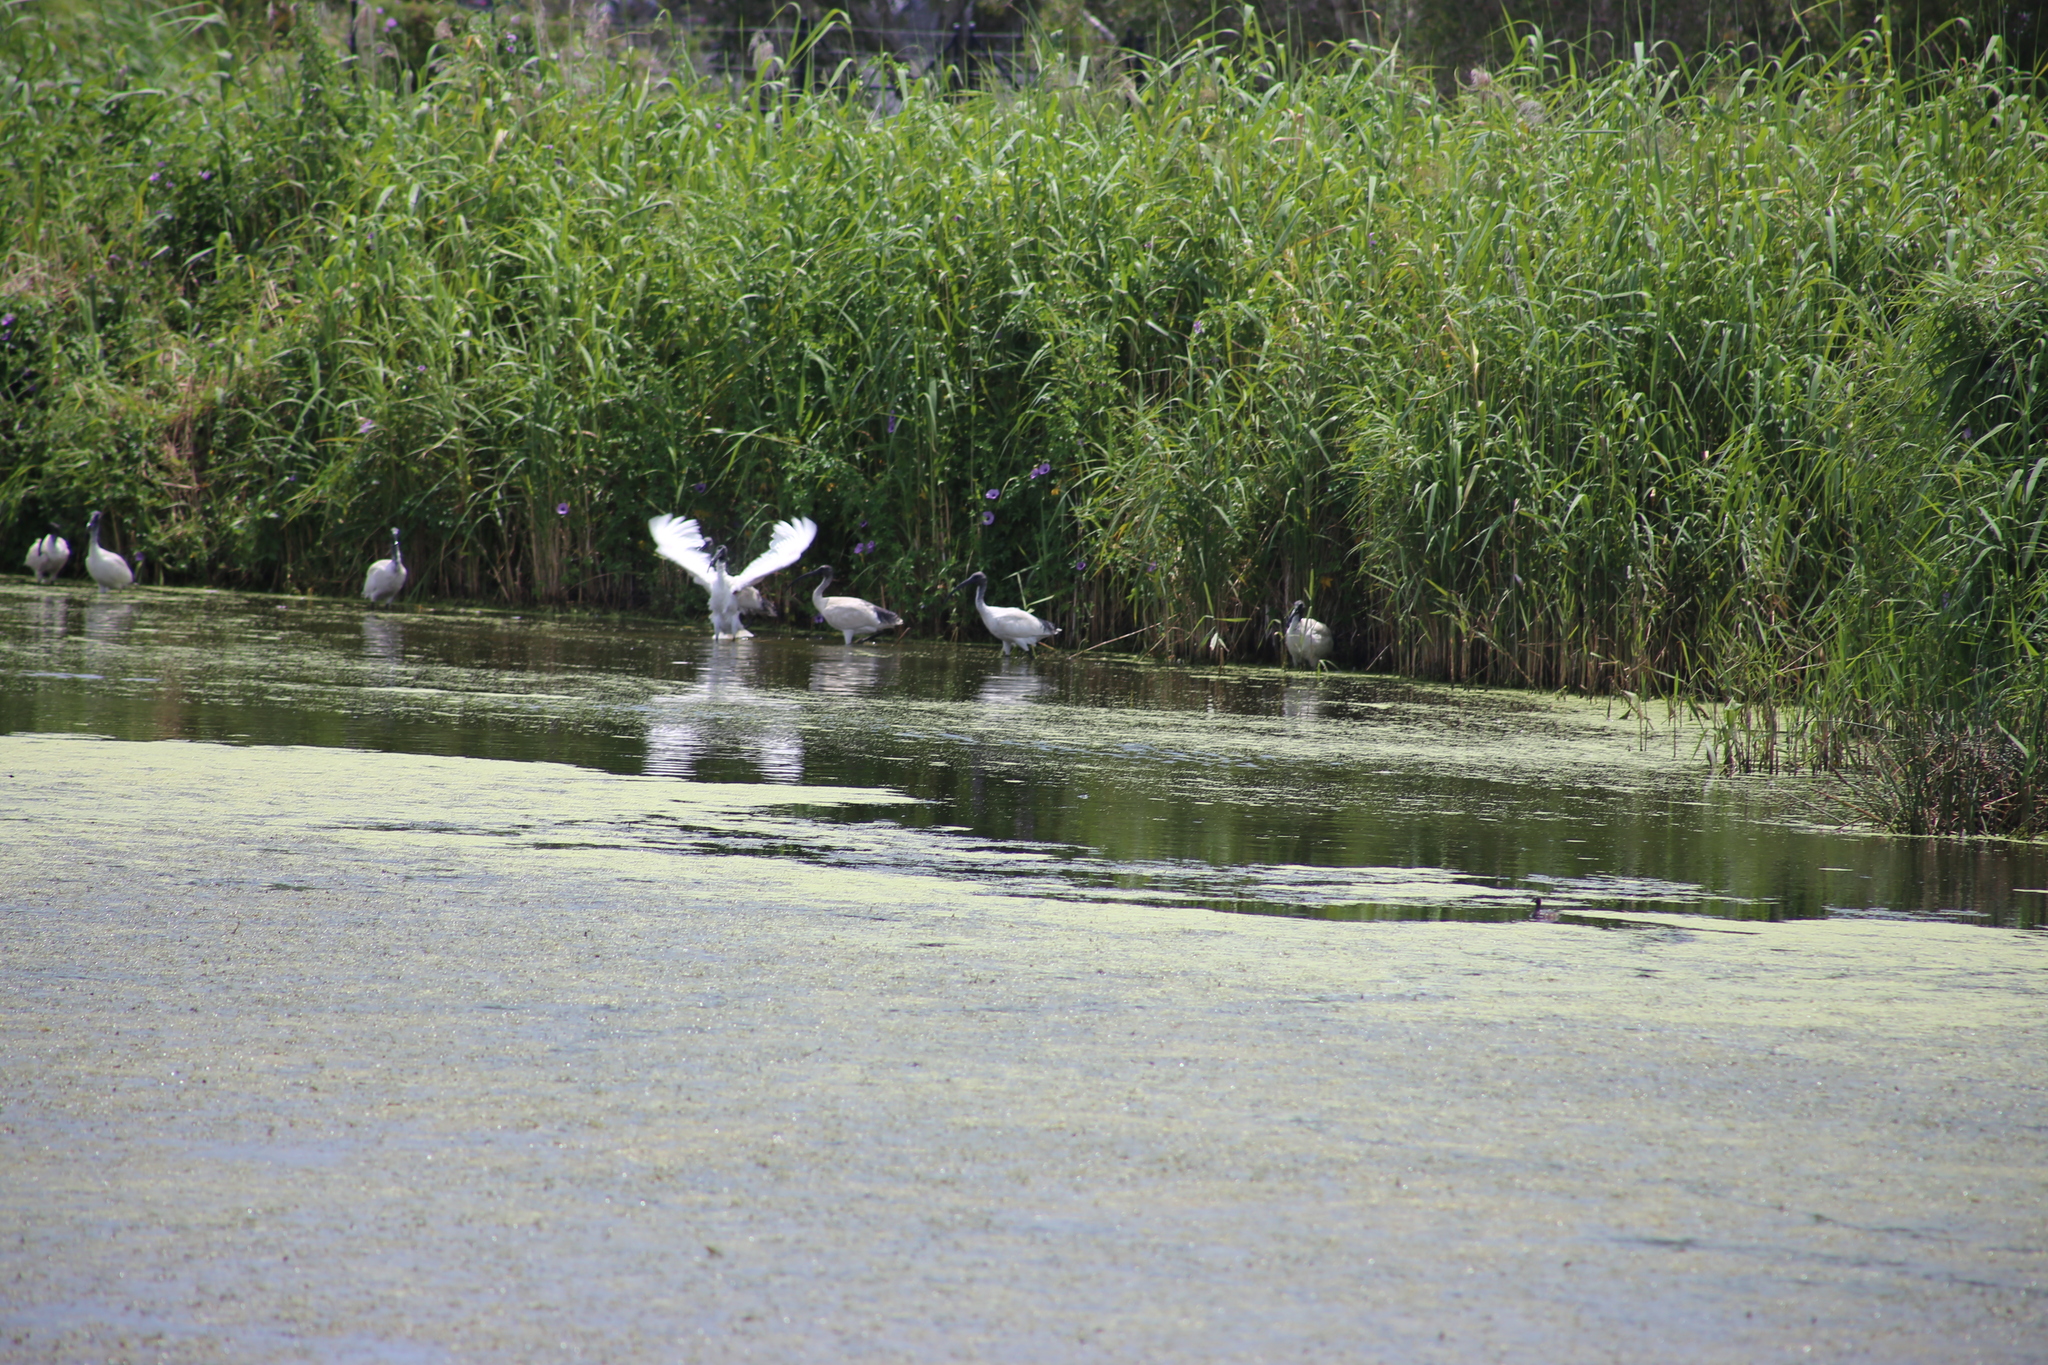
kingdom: Animalia
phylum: Chordata
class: Aves
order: Pelecaniformes
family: Threskiornithidae
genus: Threskiornis
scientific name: Threskiornis molucca
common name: Australian white ibis
